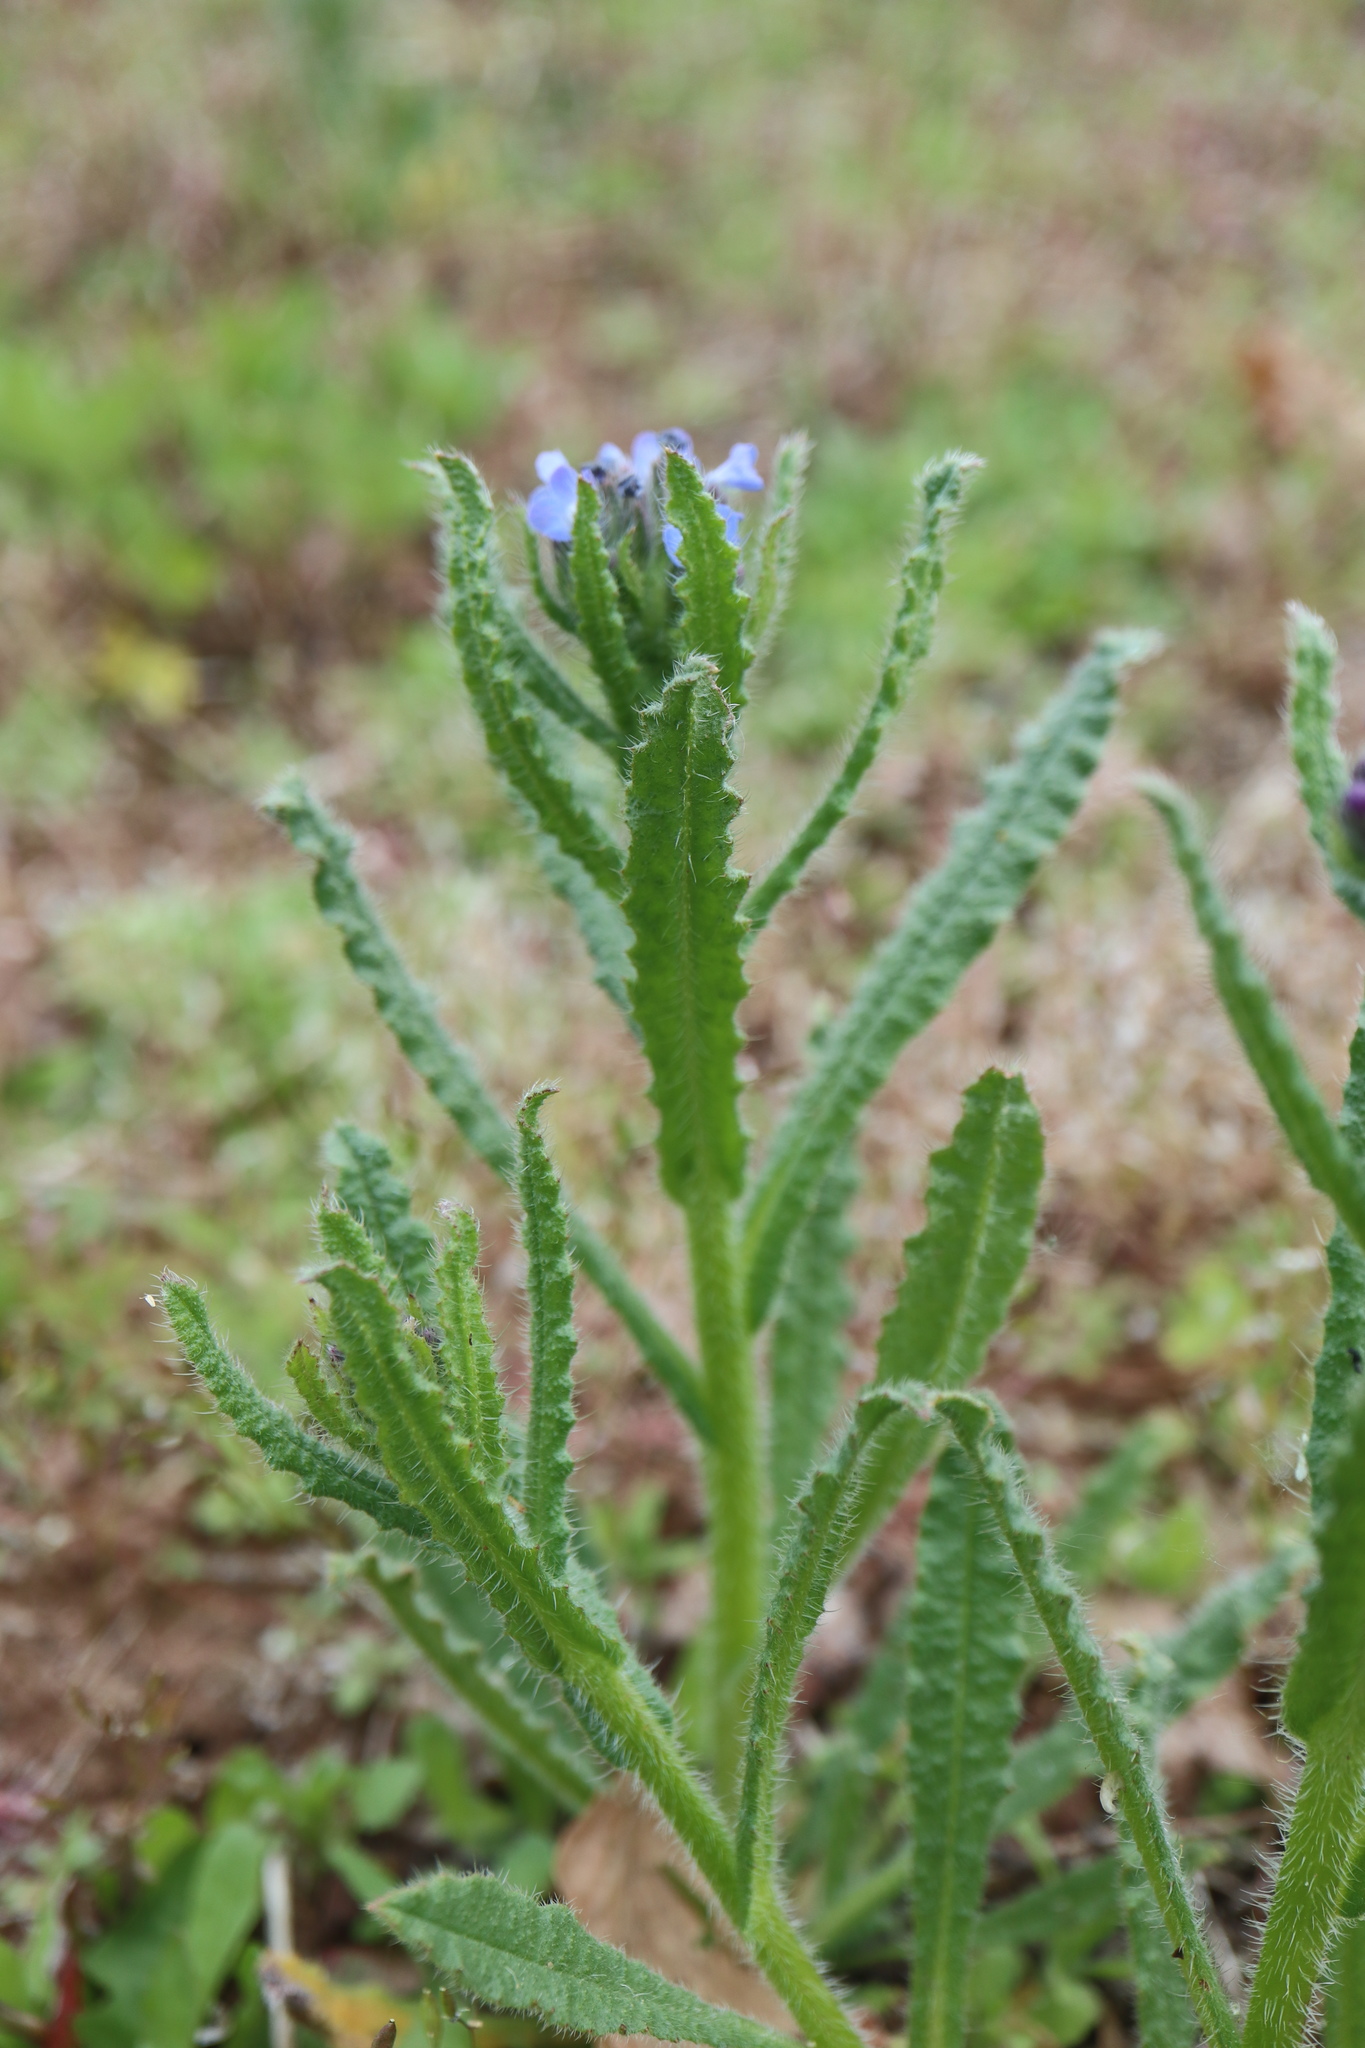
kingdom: Plantae
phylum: Tracheophyta
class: Magnoliopsida
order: Boraginales
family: Boraginaceae
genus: Lycopsis
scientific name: Lycopsis arvensis
